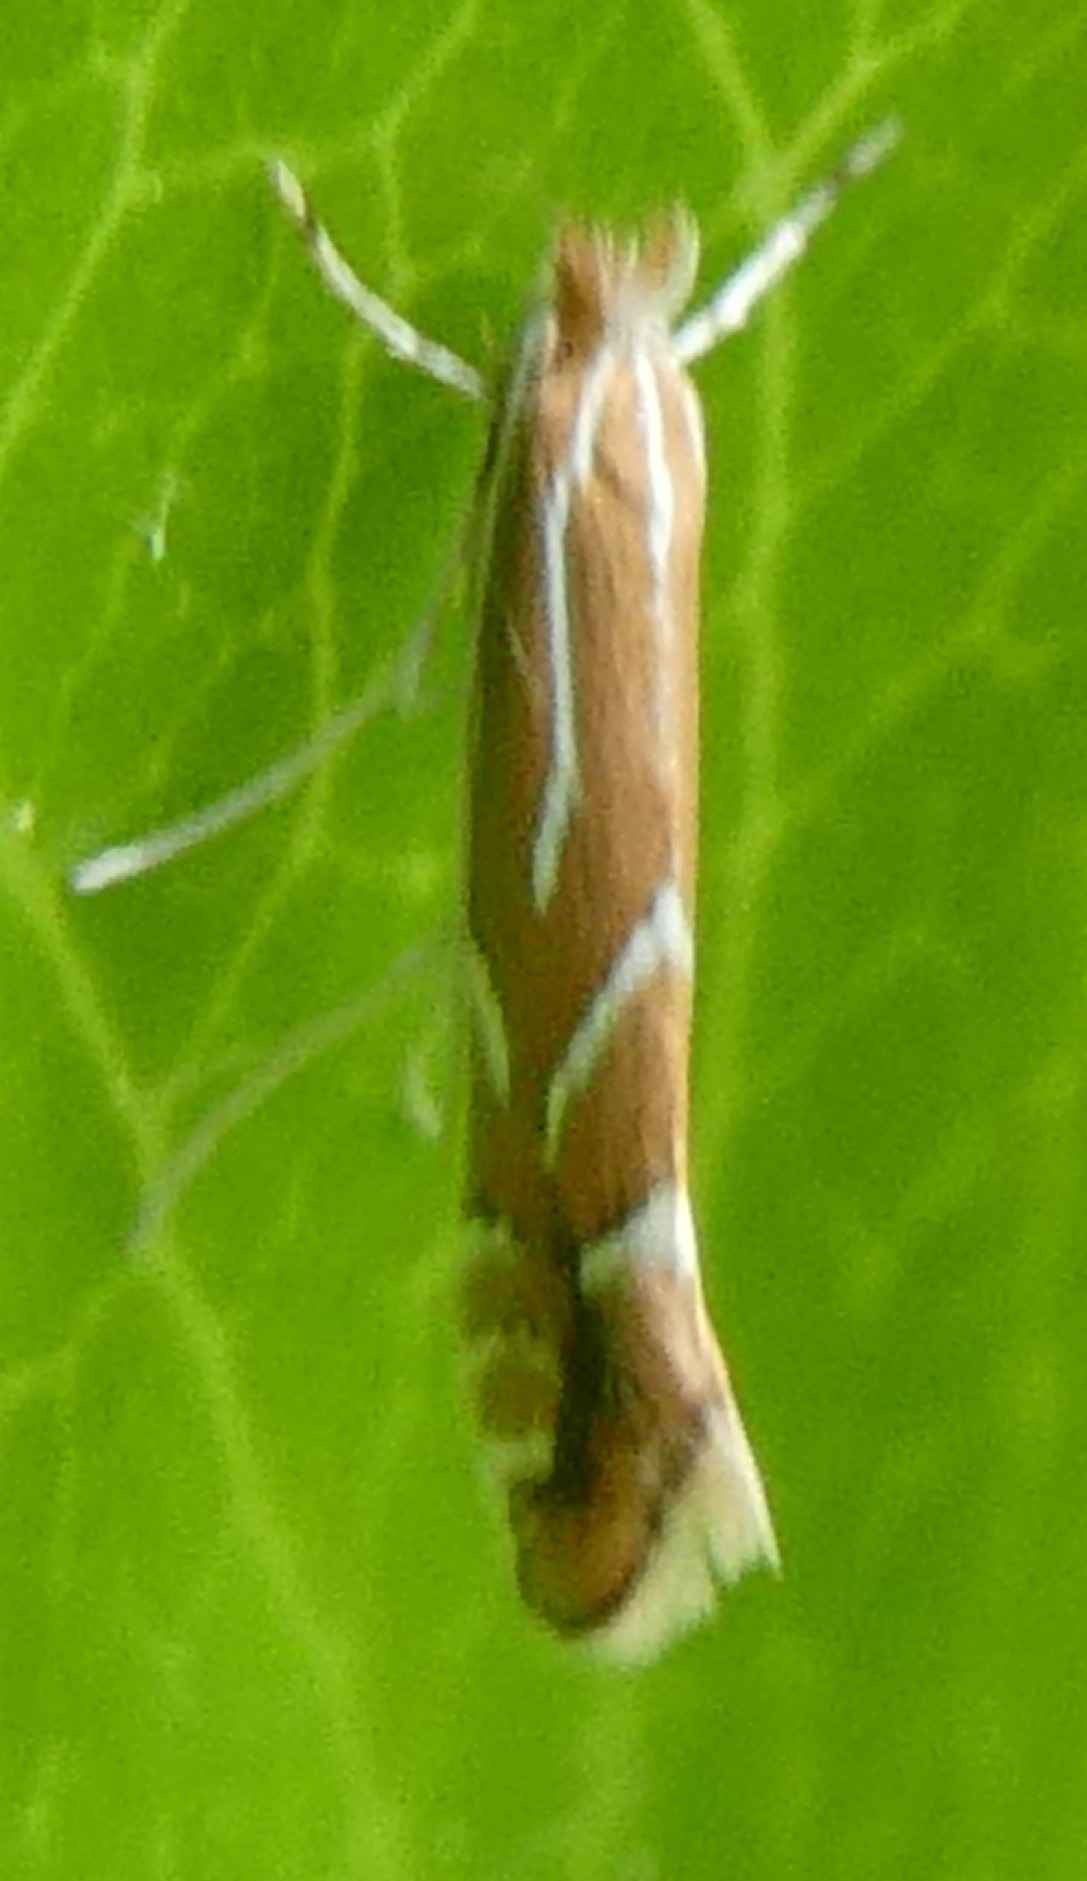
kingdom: Animalia
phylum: Arthropoda
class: Insecta
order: Lepidoptera
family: Gracillariidae
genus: Phyllonorycter
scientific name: Phyllonorycter leucographella
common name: Firethorn leaf-miner
